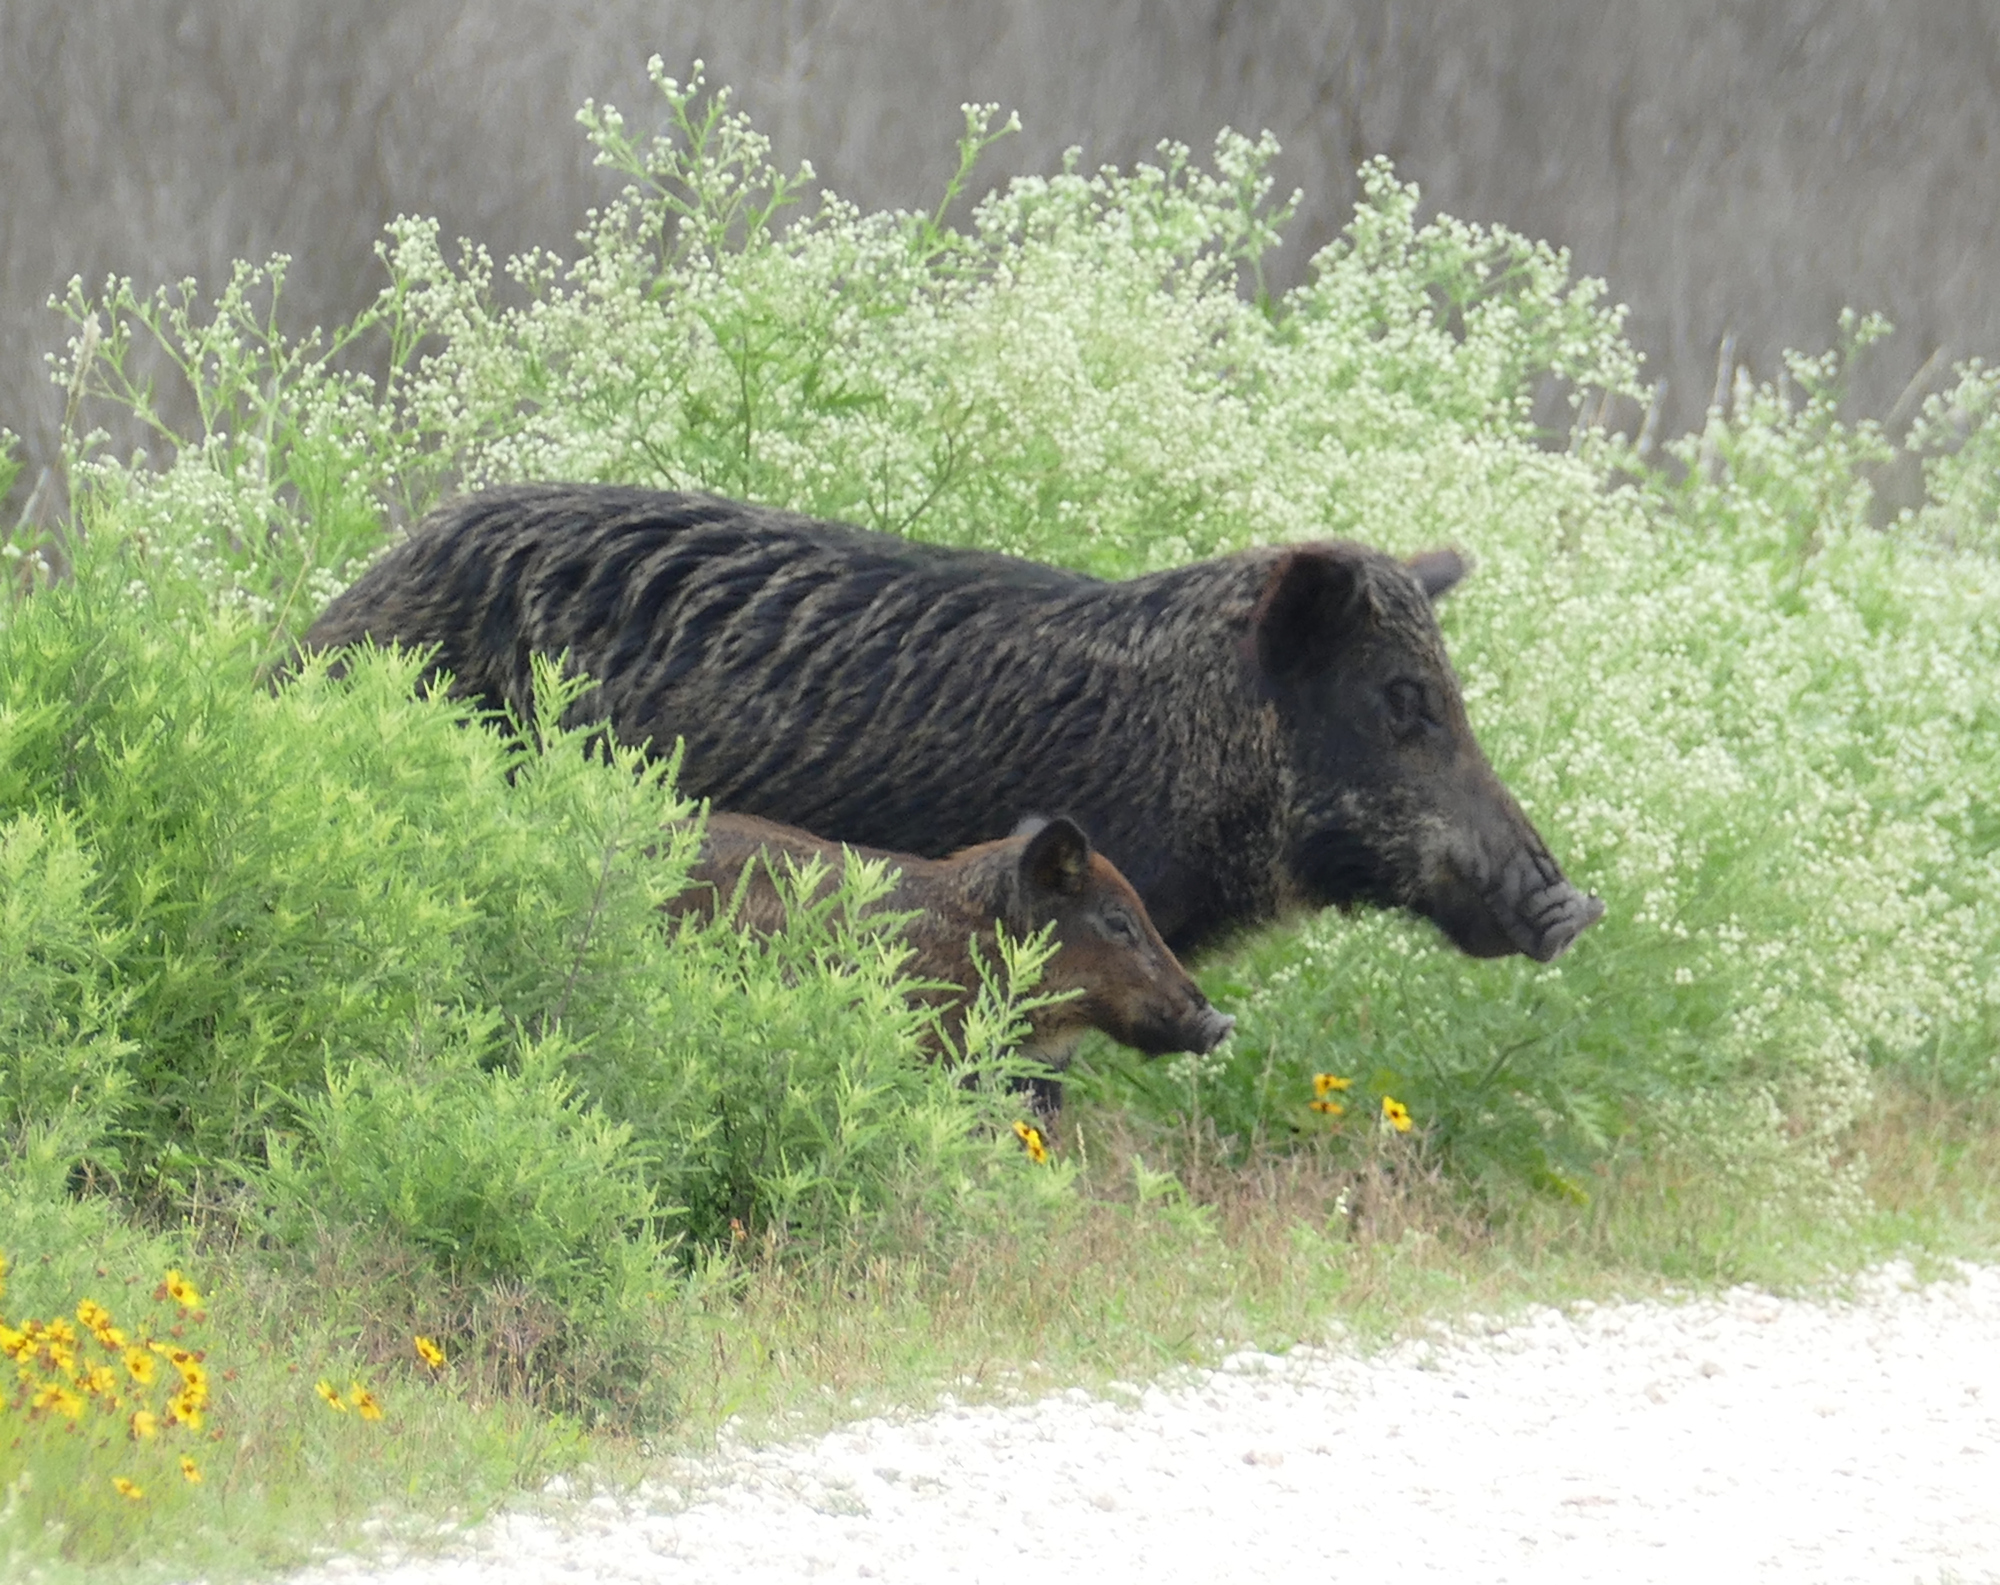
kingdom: Animalia
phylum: Chordata
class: Mammalia
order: Artiodactyla
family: Suidae
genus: Sus
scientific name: Sus scrofa
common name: Wild boar
